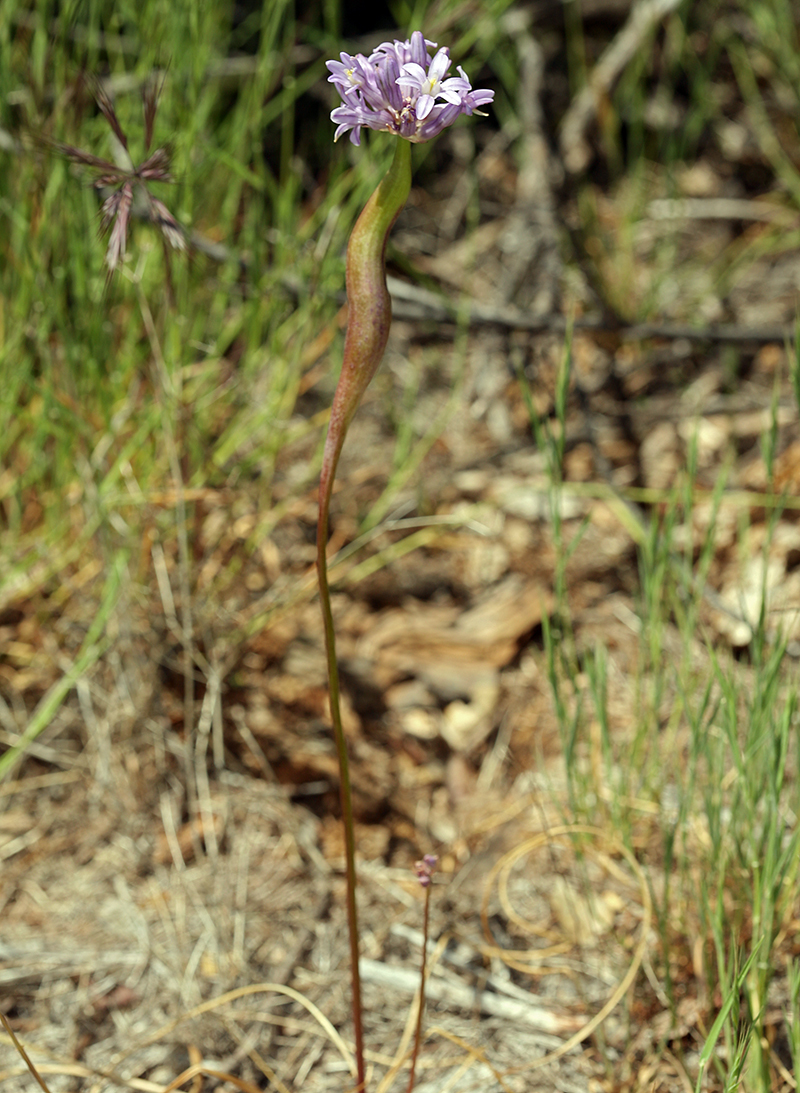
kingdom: Plantae
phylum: Tracheophyta
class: Liliopsida
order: Asparagales
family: Asparagaceae
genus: Dichelostemma
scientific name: Dichelostemma multiflorum
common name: Round-tooth ookow
